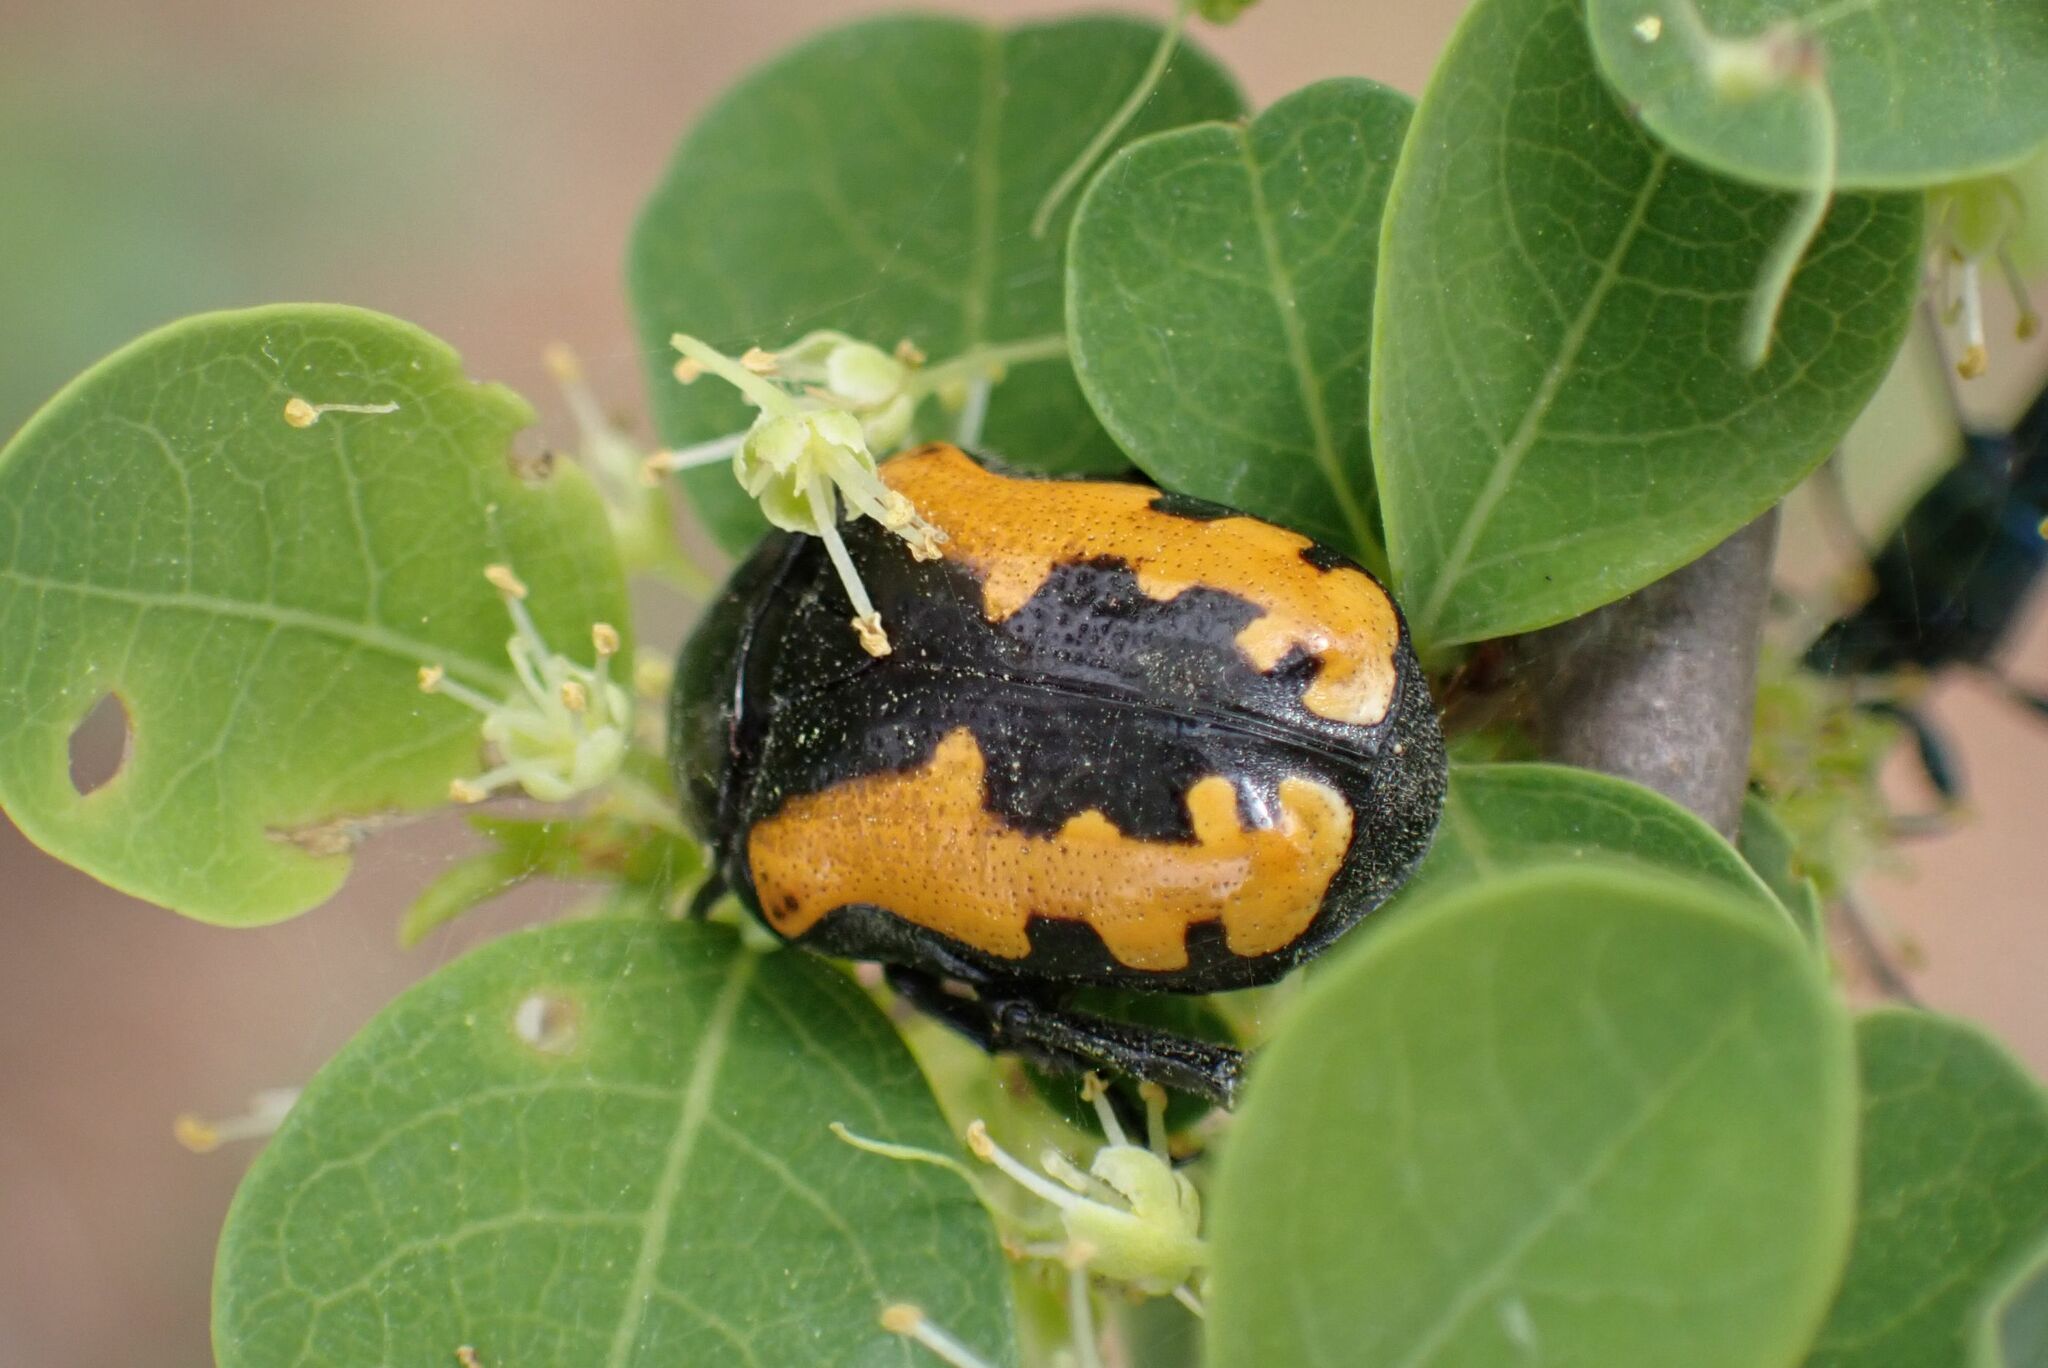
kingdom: Animalia
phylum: Arthropoda
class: Insecta
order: Coleoptera
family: Scarabaeidae
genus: Phoxomela
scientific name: Phoxomela umbrosa
